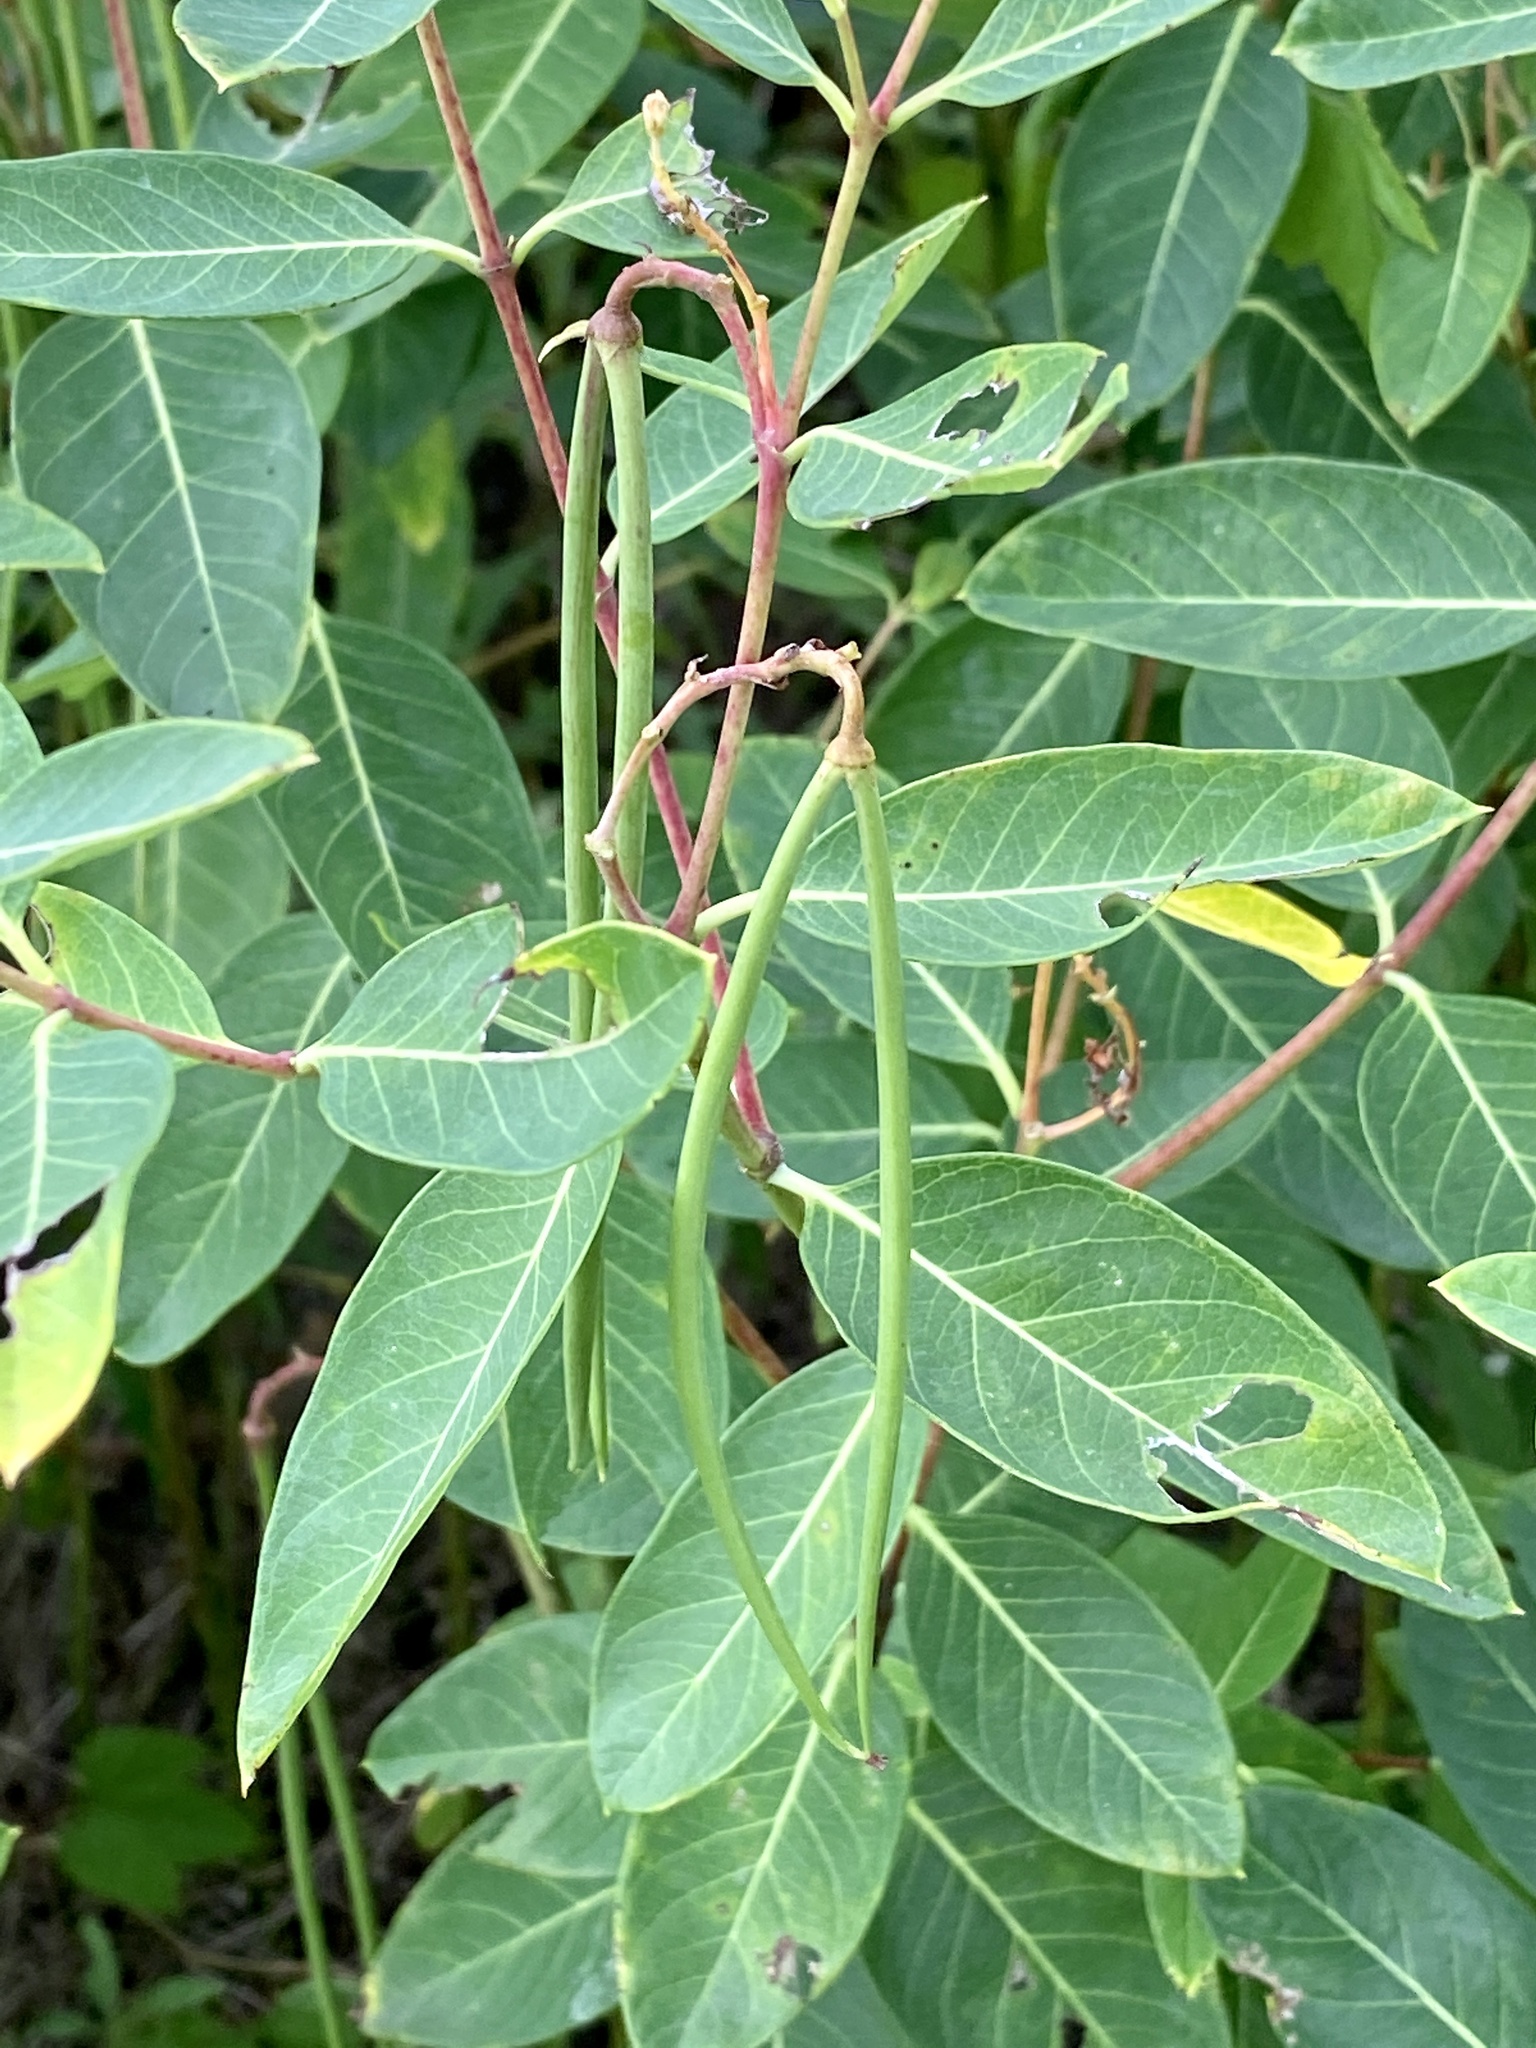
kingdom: Plantae
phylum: Tracheophyta
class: Magnoliopsida
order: Gentianales
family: Apocynaceae
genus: Apocynum
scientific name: Apocynum cannabinum
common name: Hemp dogbane
